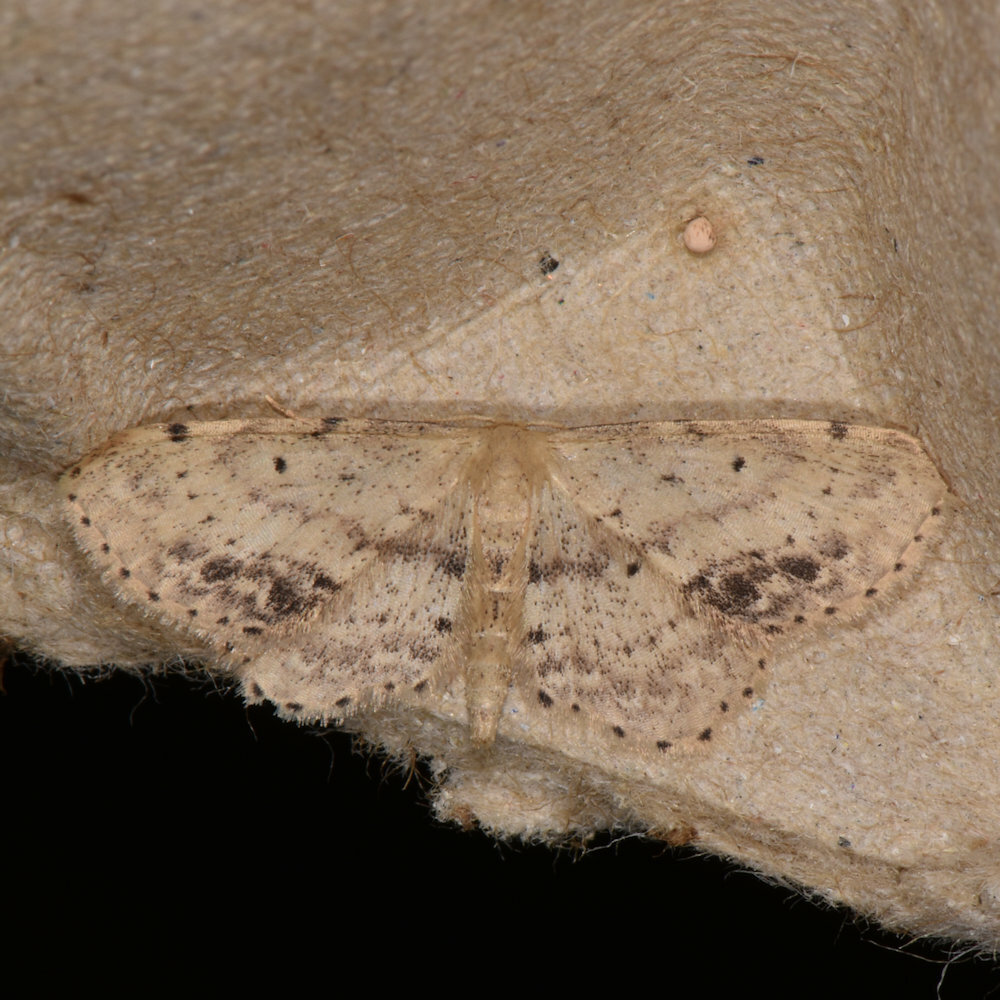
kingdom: Animalia
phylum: Arthropoda
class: Insecta
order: Lepidoptera
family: Geometridae
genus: Idaea
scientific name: Idaea dimidiata
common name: Single-dotted wave
